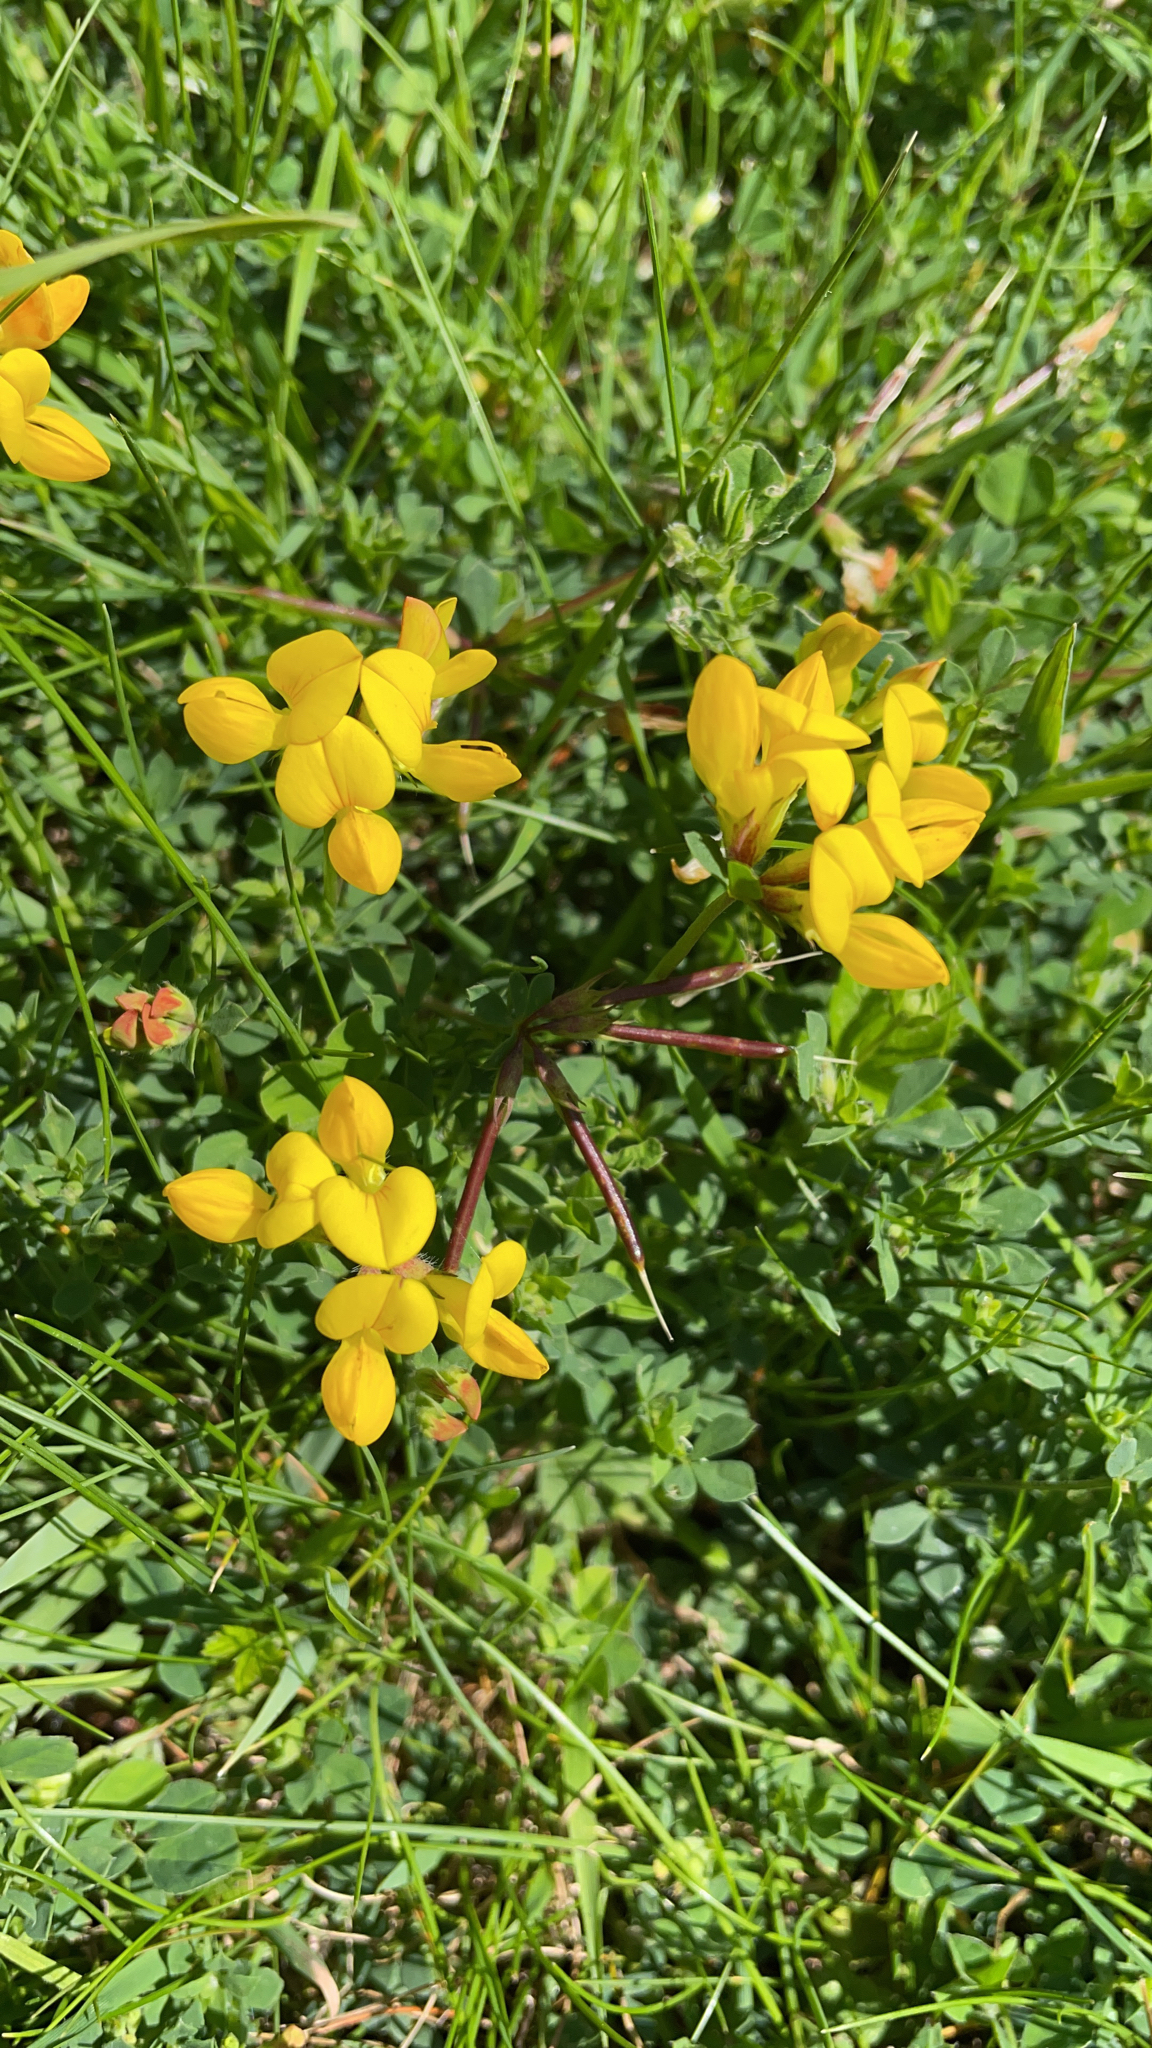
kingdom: Plantae
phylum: Tracheophyta
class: Magnoliopsida
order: Fabales
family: Fabaceae
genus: Lotus
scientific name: Lotus corniculatus
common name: Common bird's-foot-trefoil
